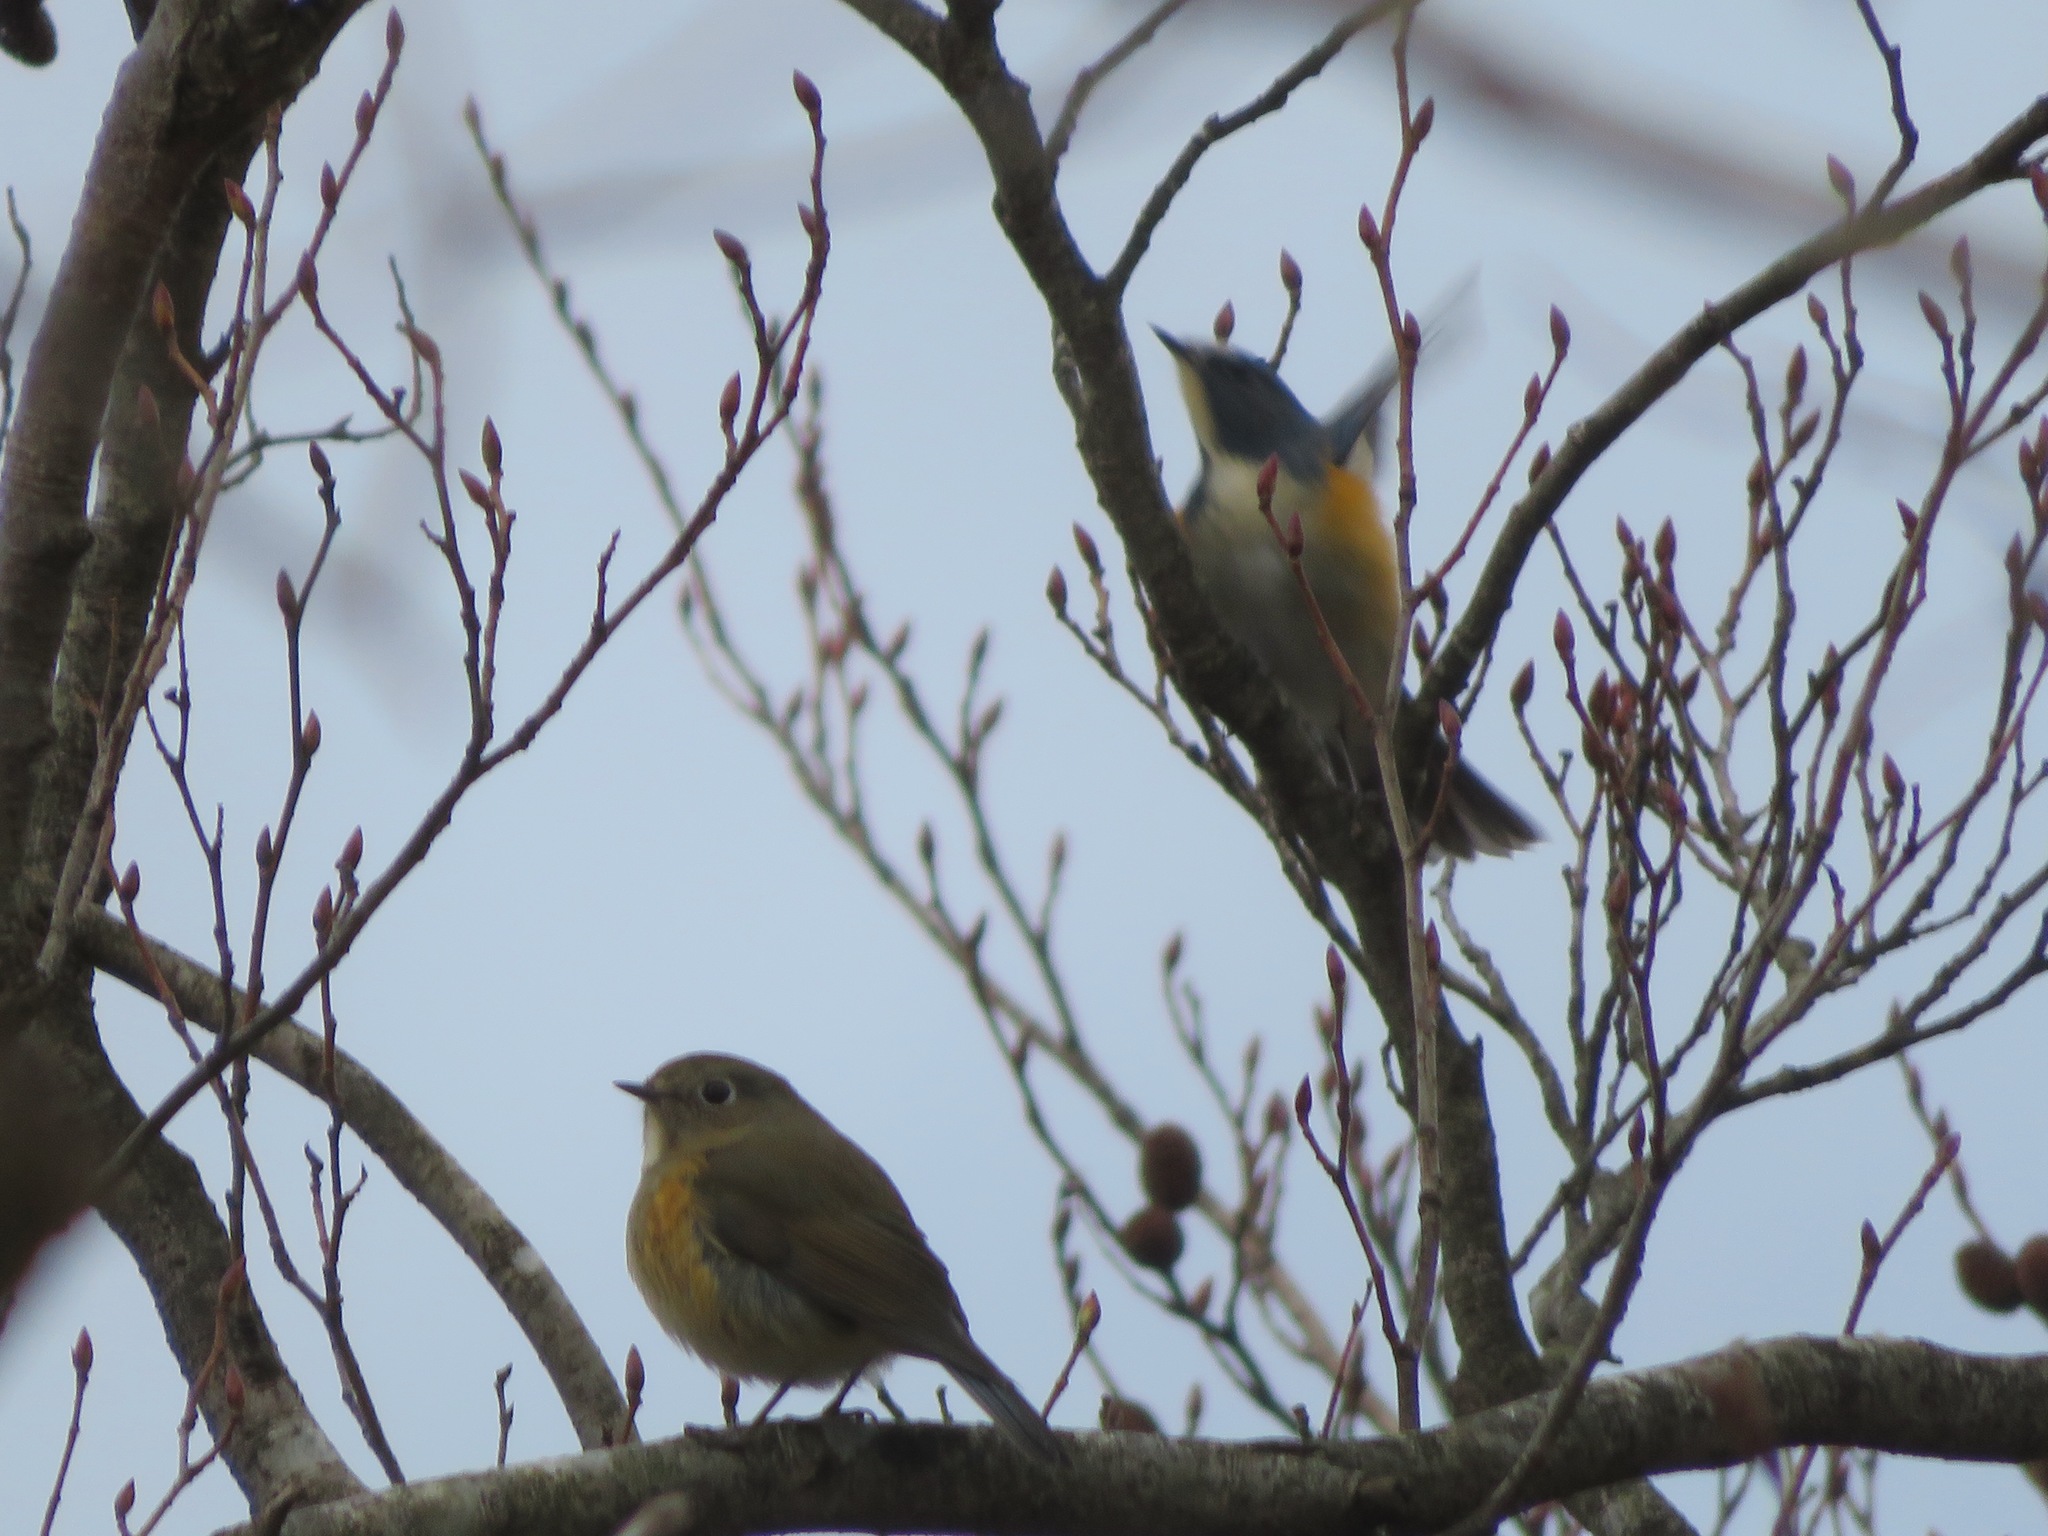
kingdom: Animalia
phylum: Chordata
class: Aves
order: Passeriformes
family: Muscicapidae
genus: Tarsiger
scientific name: Tarsiger cyanurus
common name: Red-flanked bluetail
